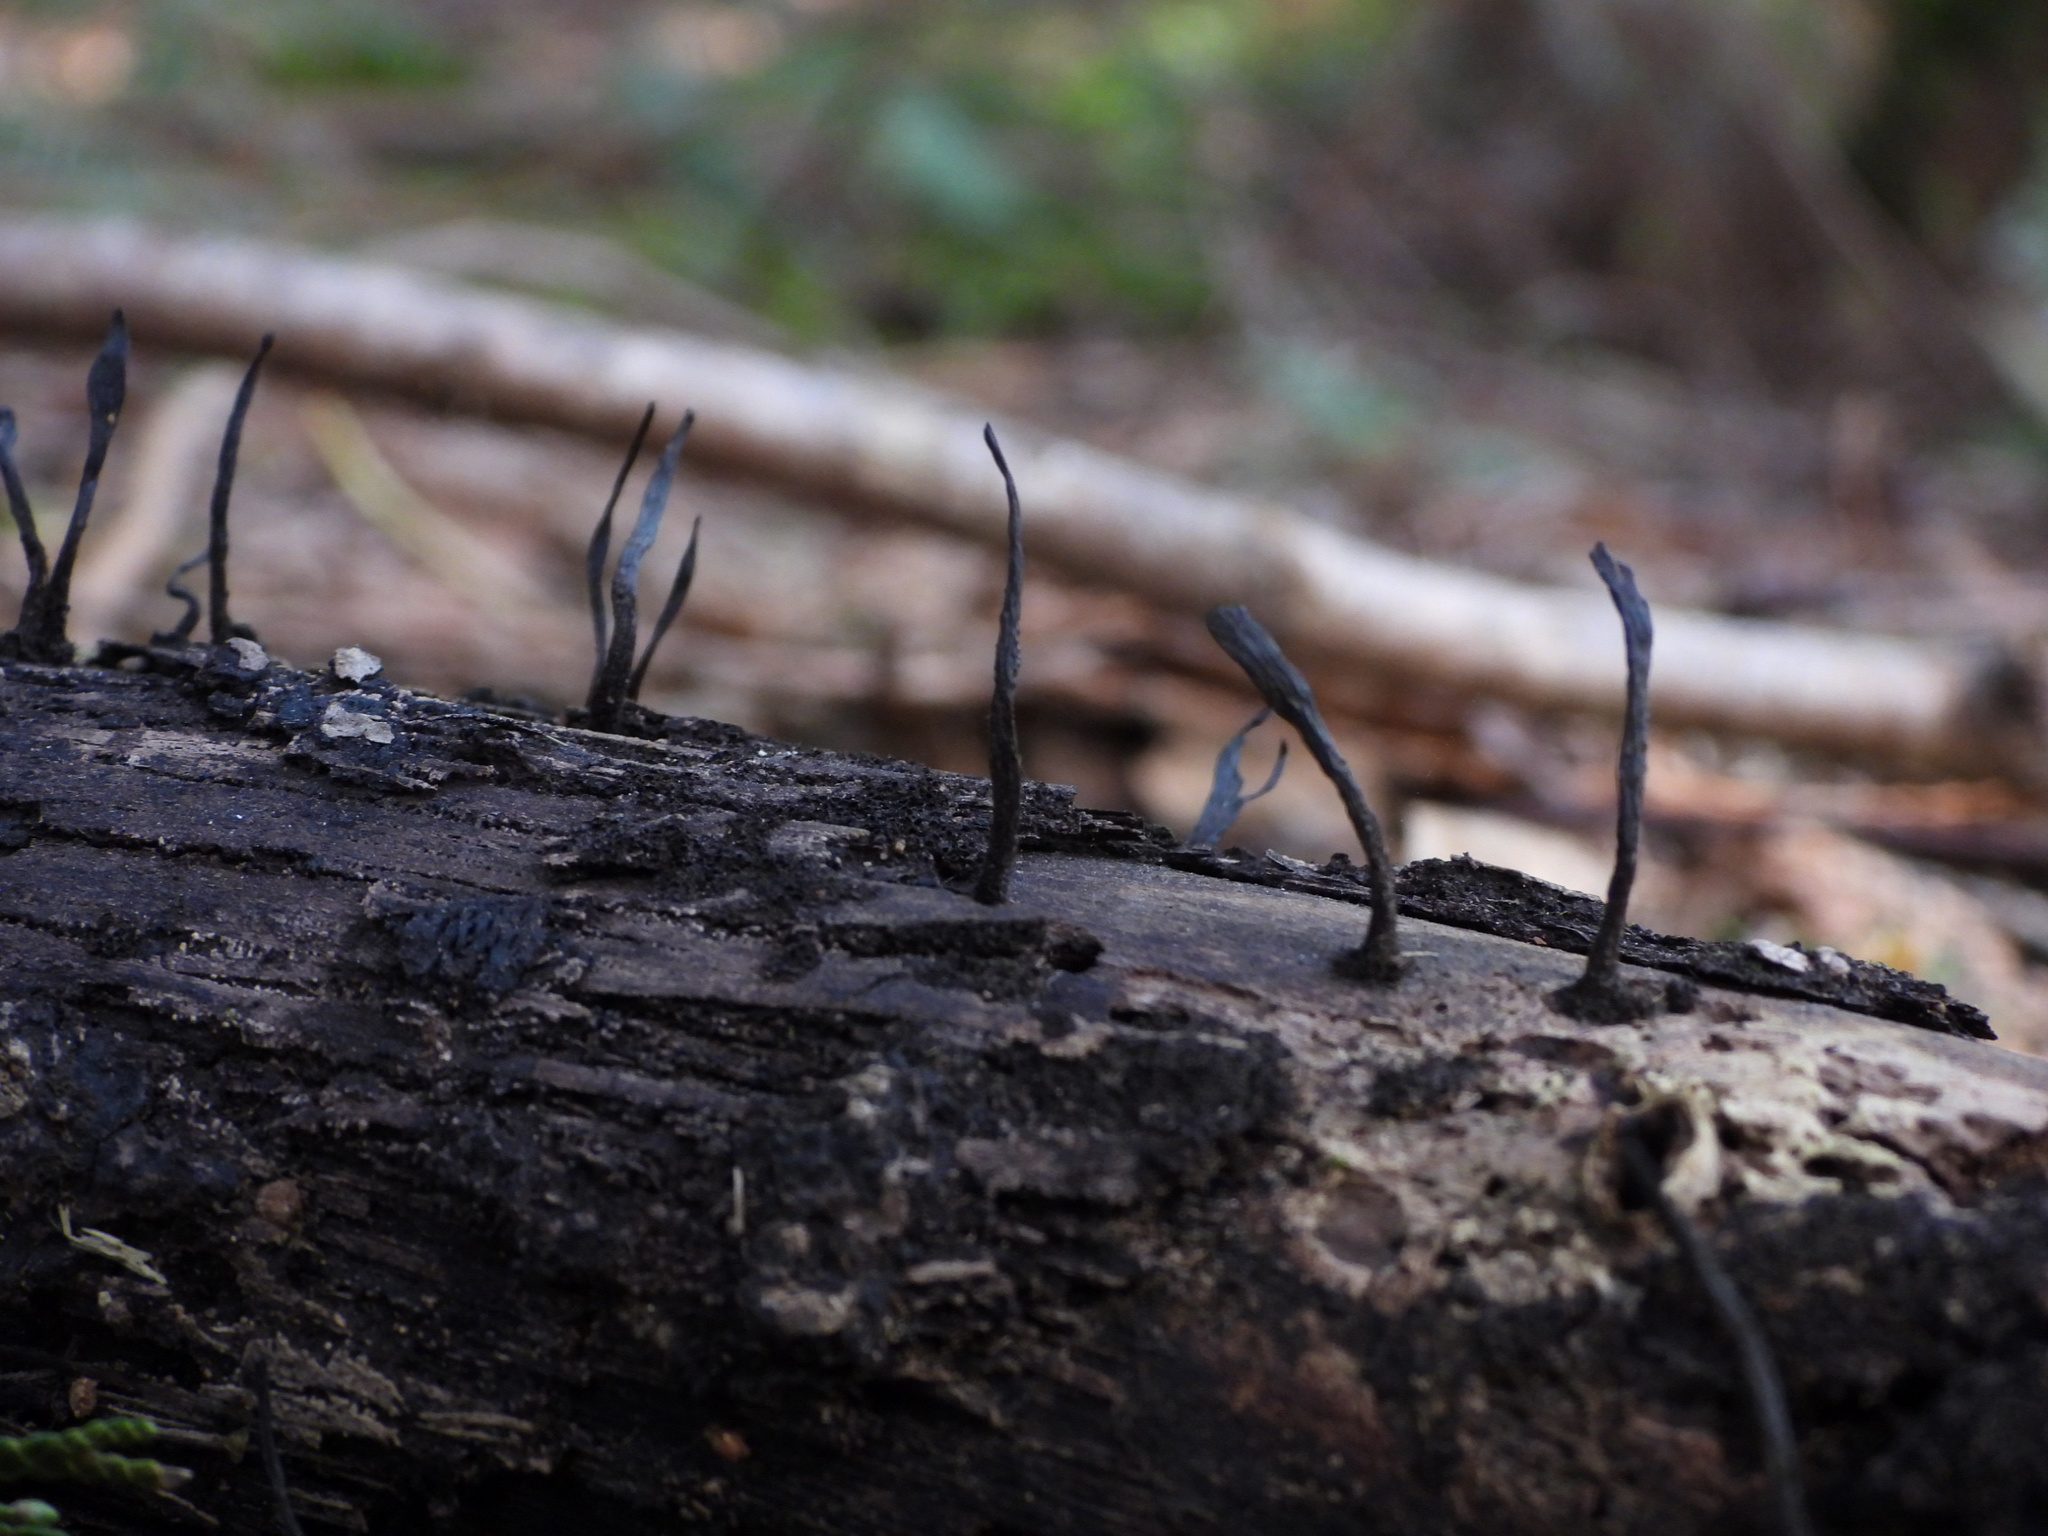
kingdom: Fungi
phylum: Ascomycota
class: Sordariomycetes
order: Xylariales
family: Xylariaceae
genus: Xylaria
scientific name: Xylaria hypoxylon
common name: Candle-snuff fungus
